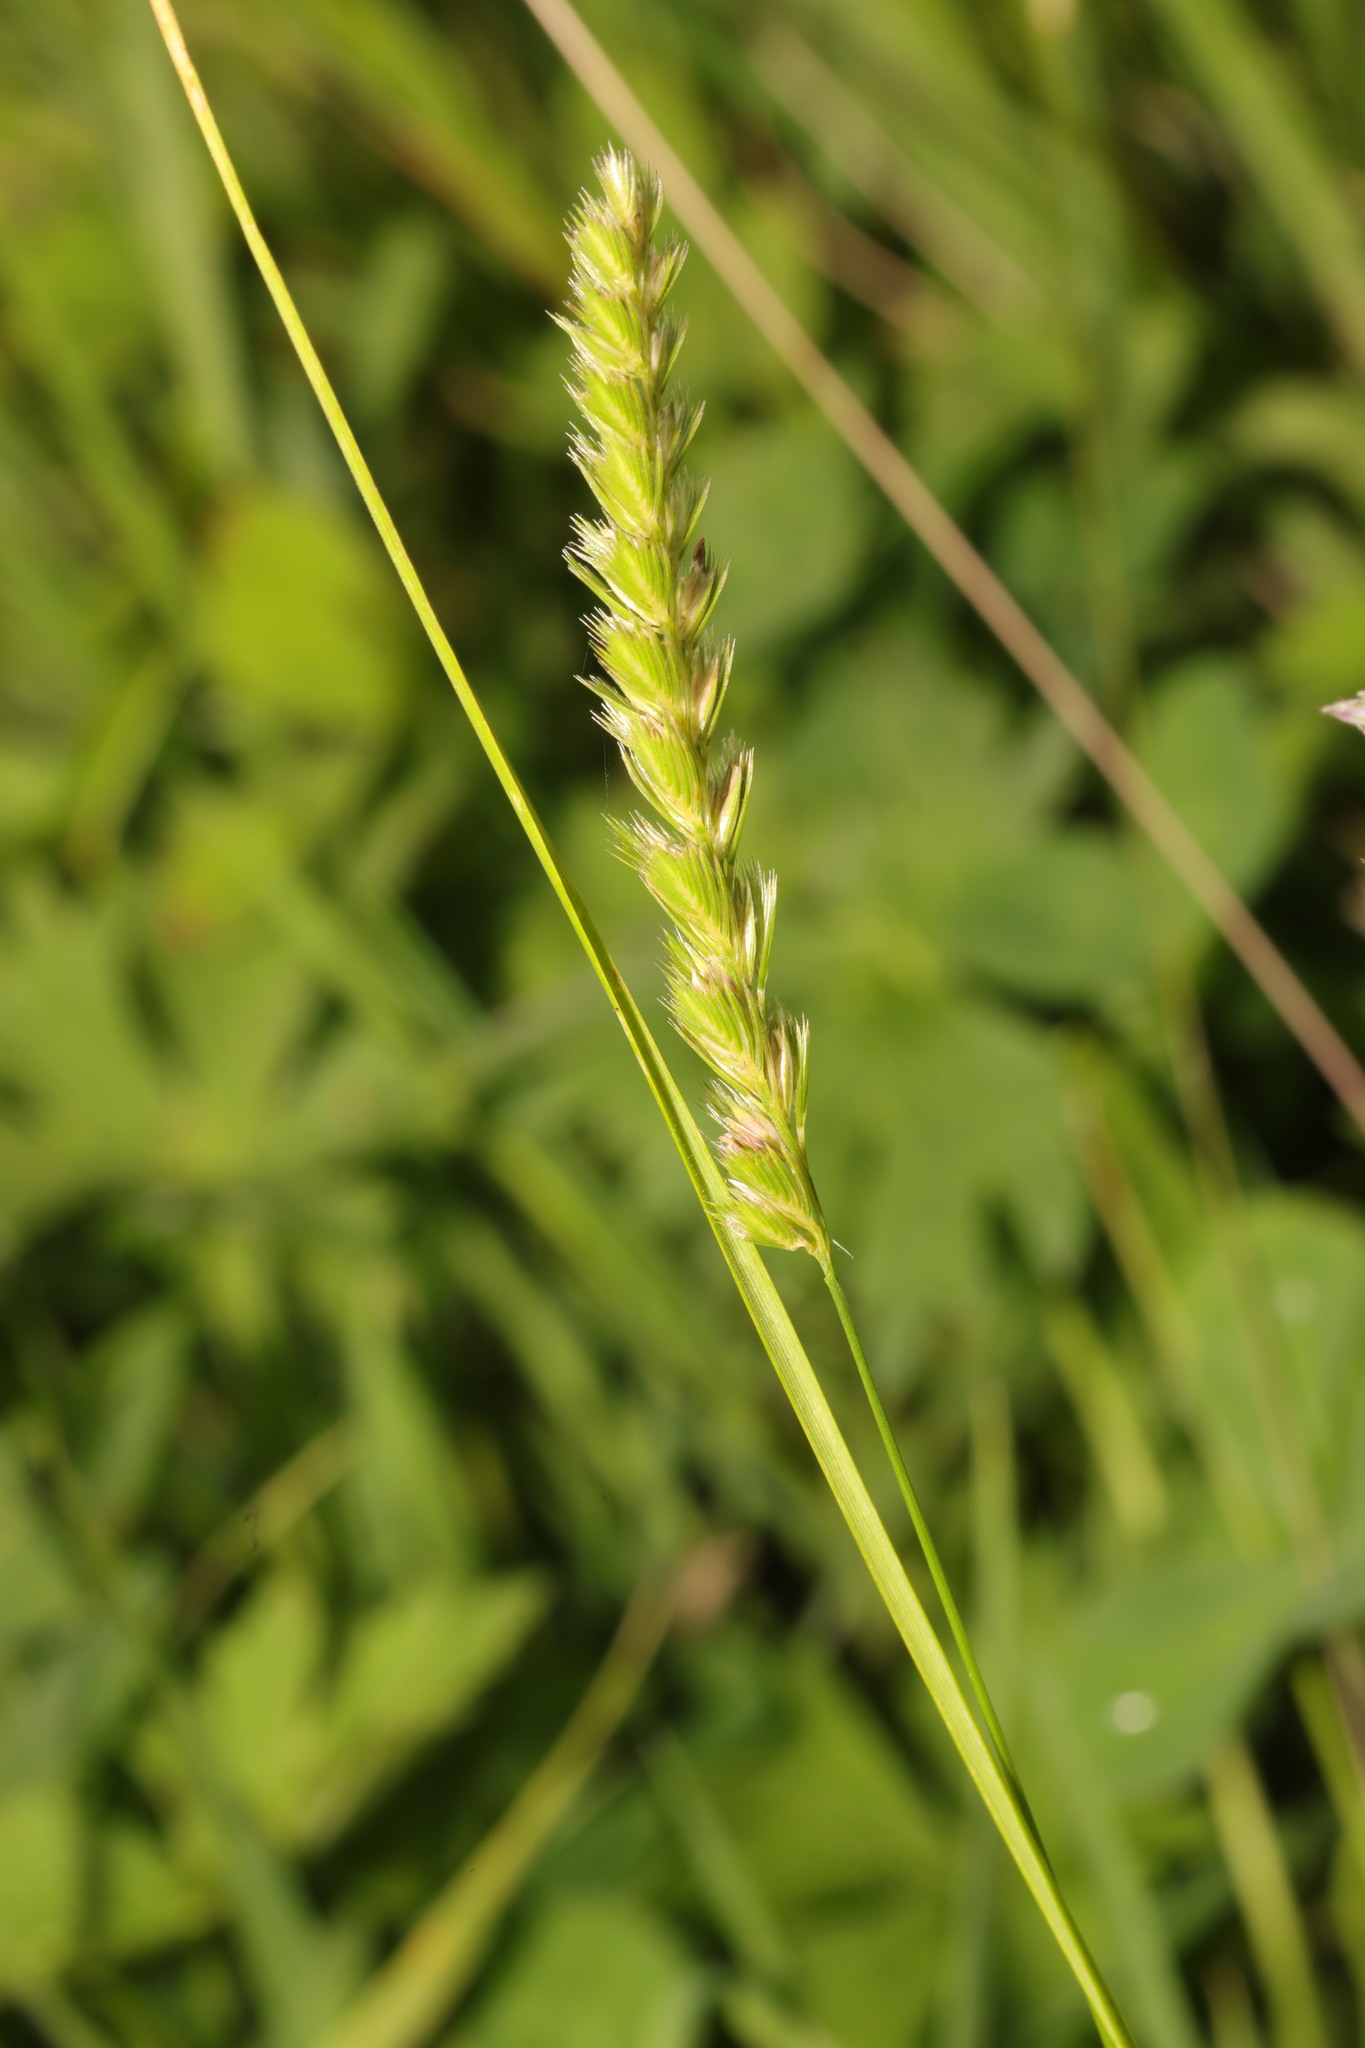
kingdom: Plantae
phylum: Tracheophyta
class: Liliopsida
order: Poales
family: Poaceae
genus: Cynosurus
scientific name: Cynosurus cristatus
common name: Crested dog's-tail
